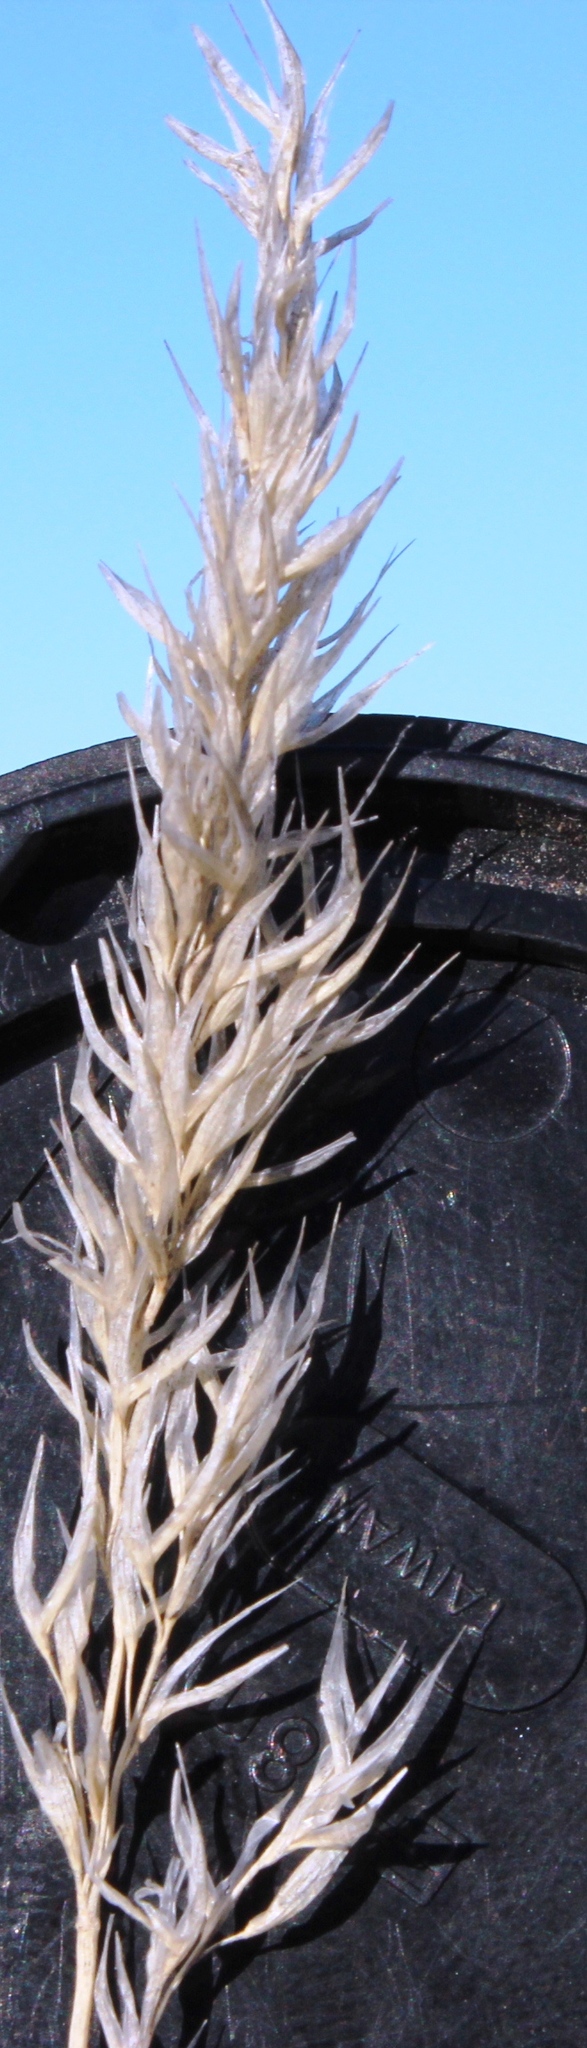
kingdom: Plantae
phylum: Tracheophyta
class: Liliopsida
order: Poales
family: Poaceae
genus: Centropodia
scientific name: Centropodia glauca
